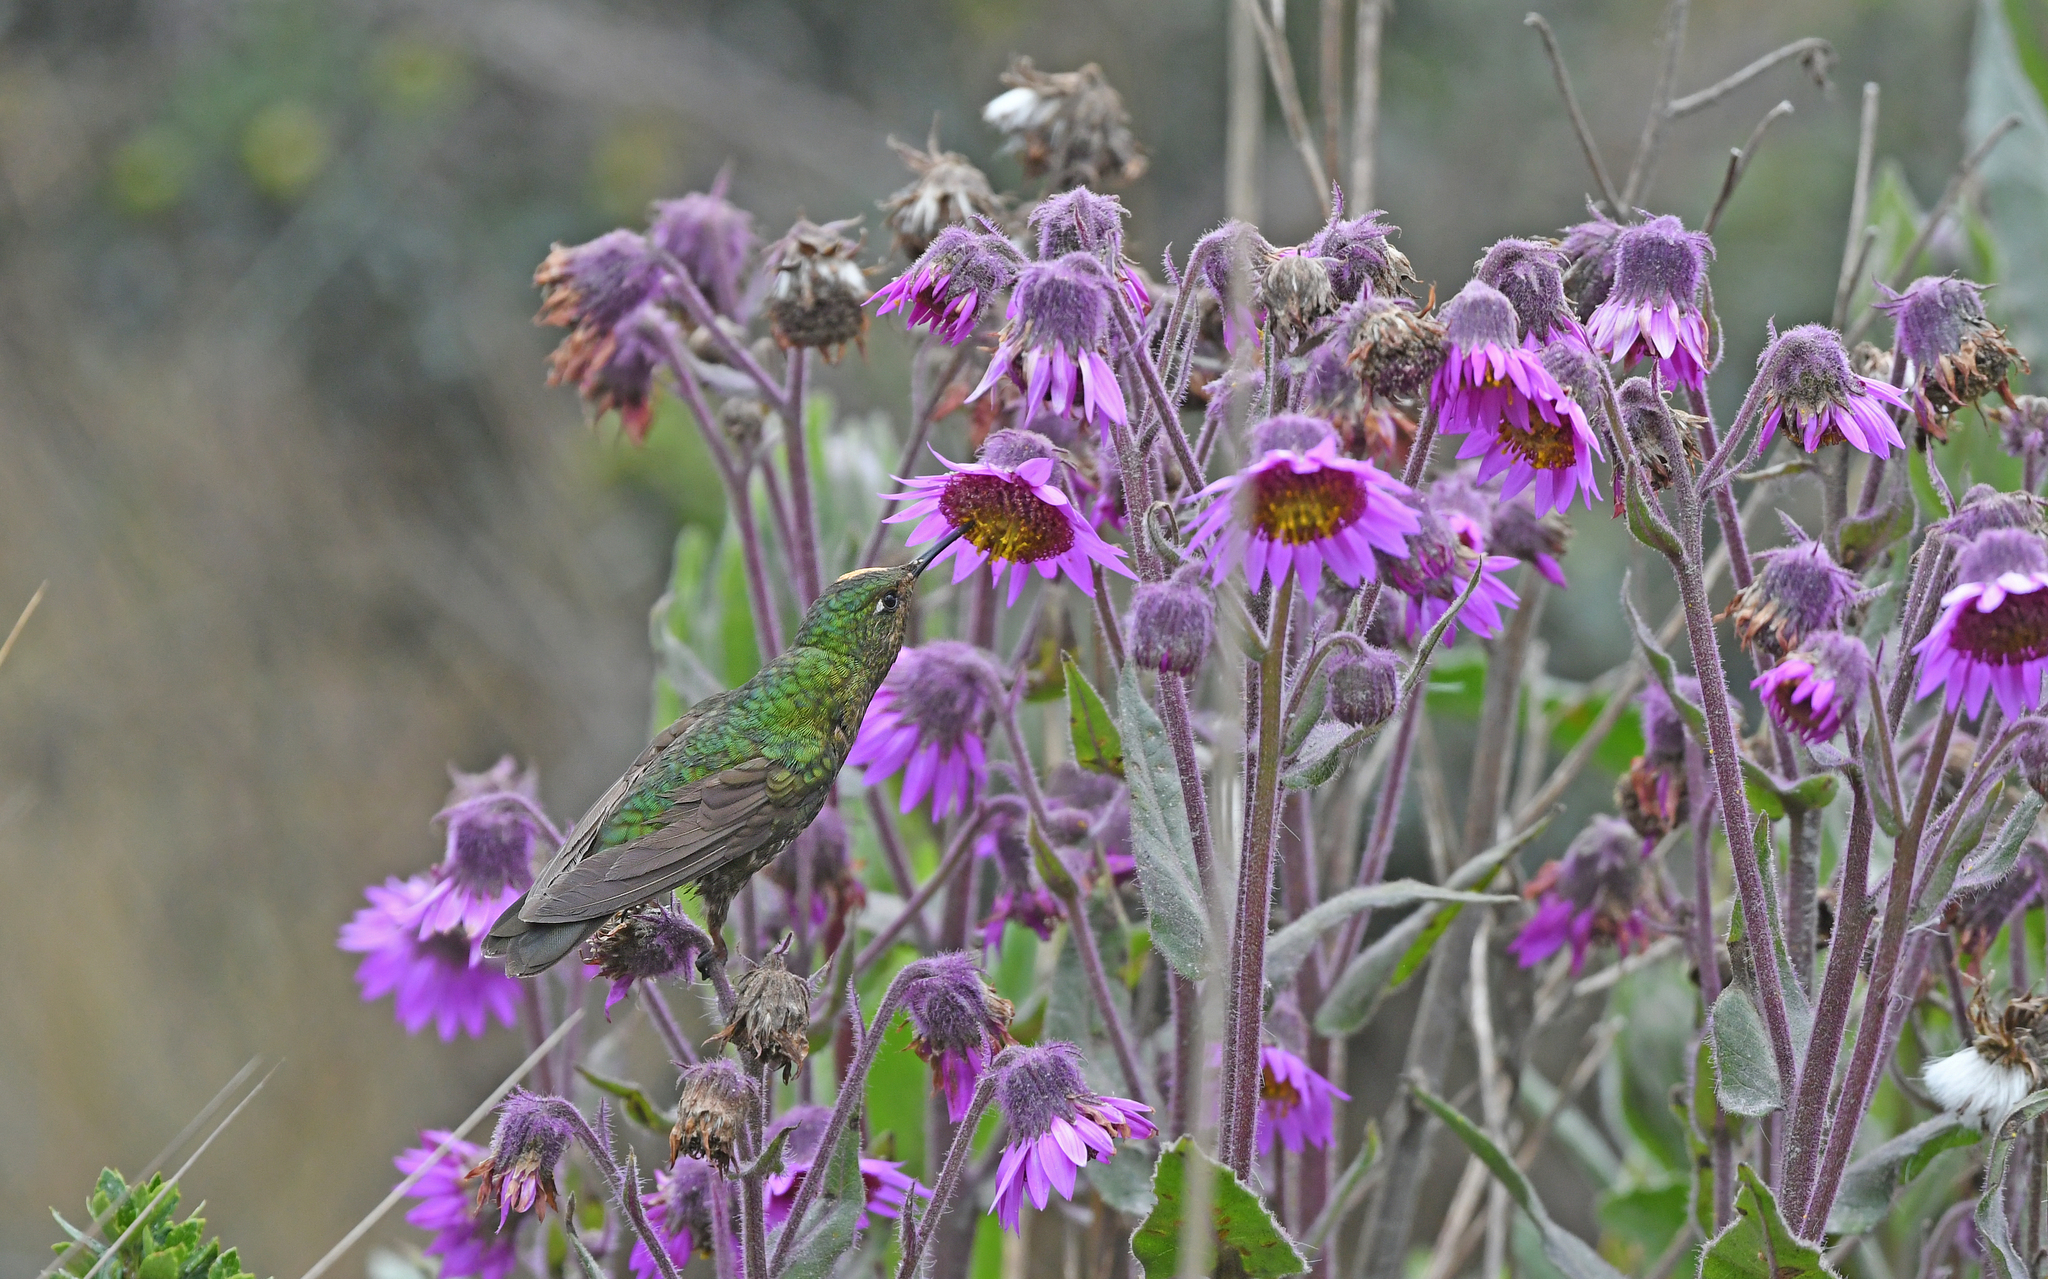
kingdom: Animalia
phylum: Chordata
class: Aves
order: Apodiformes
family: Trochilidae
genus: Metallura
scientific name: Metallura williami
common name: Viridian metaltail
